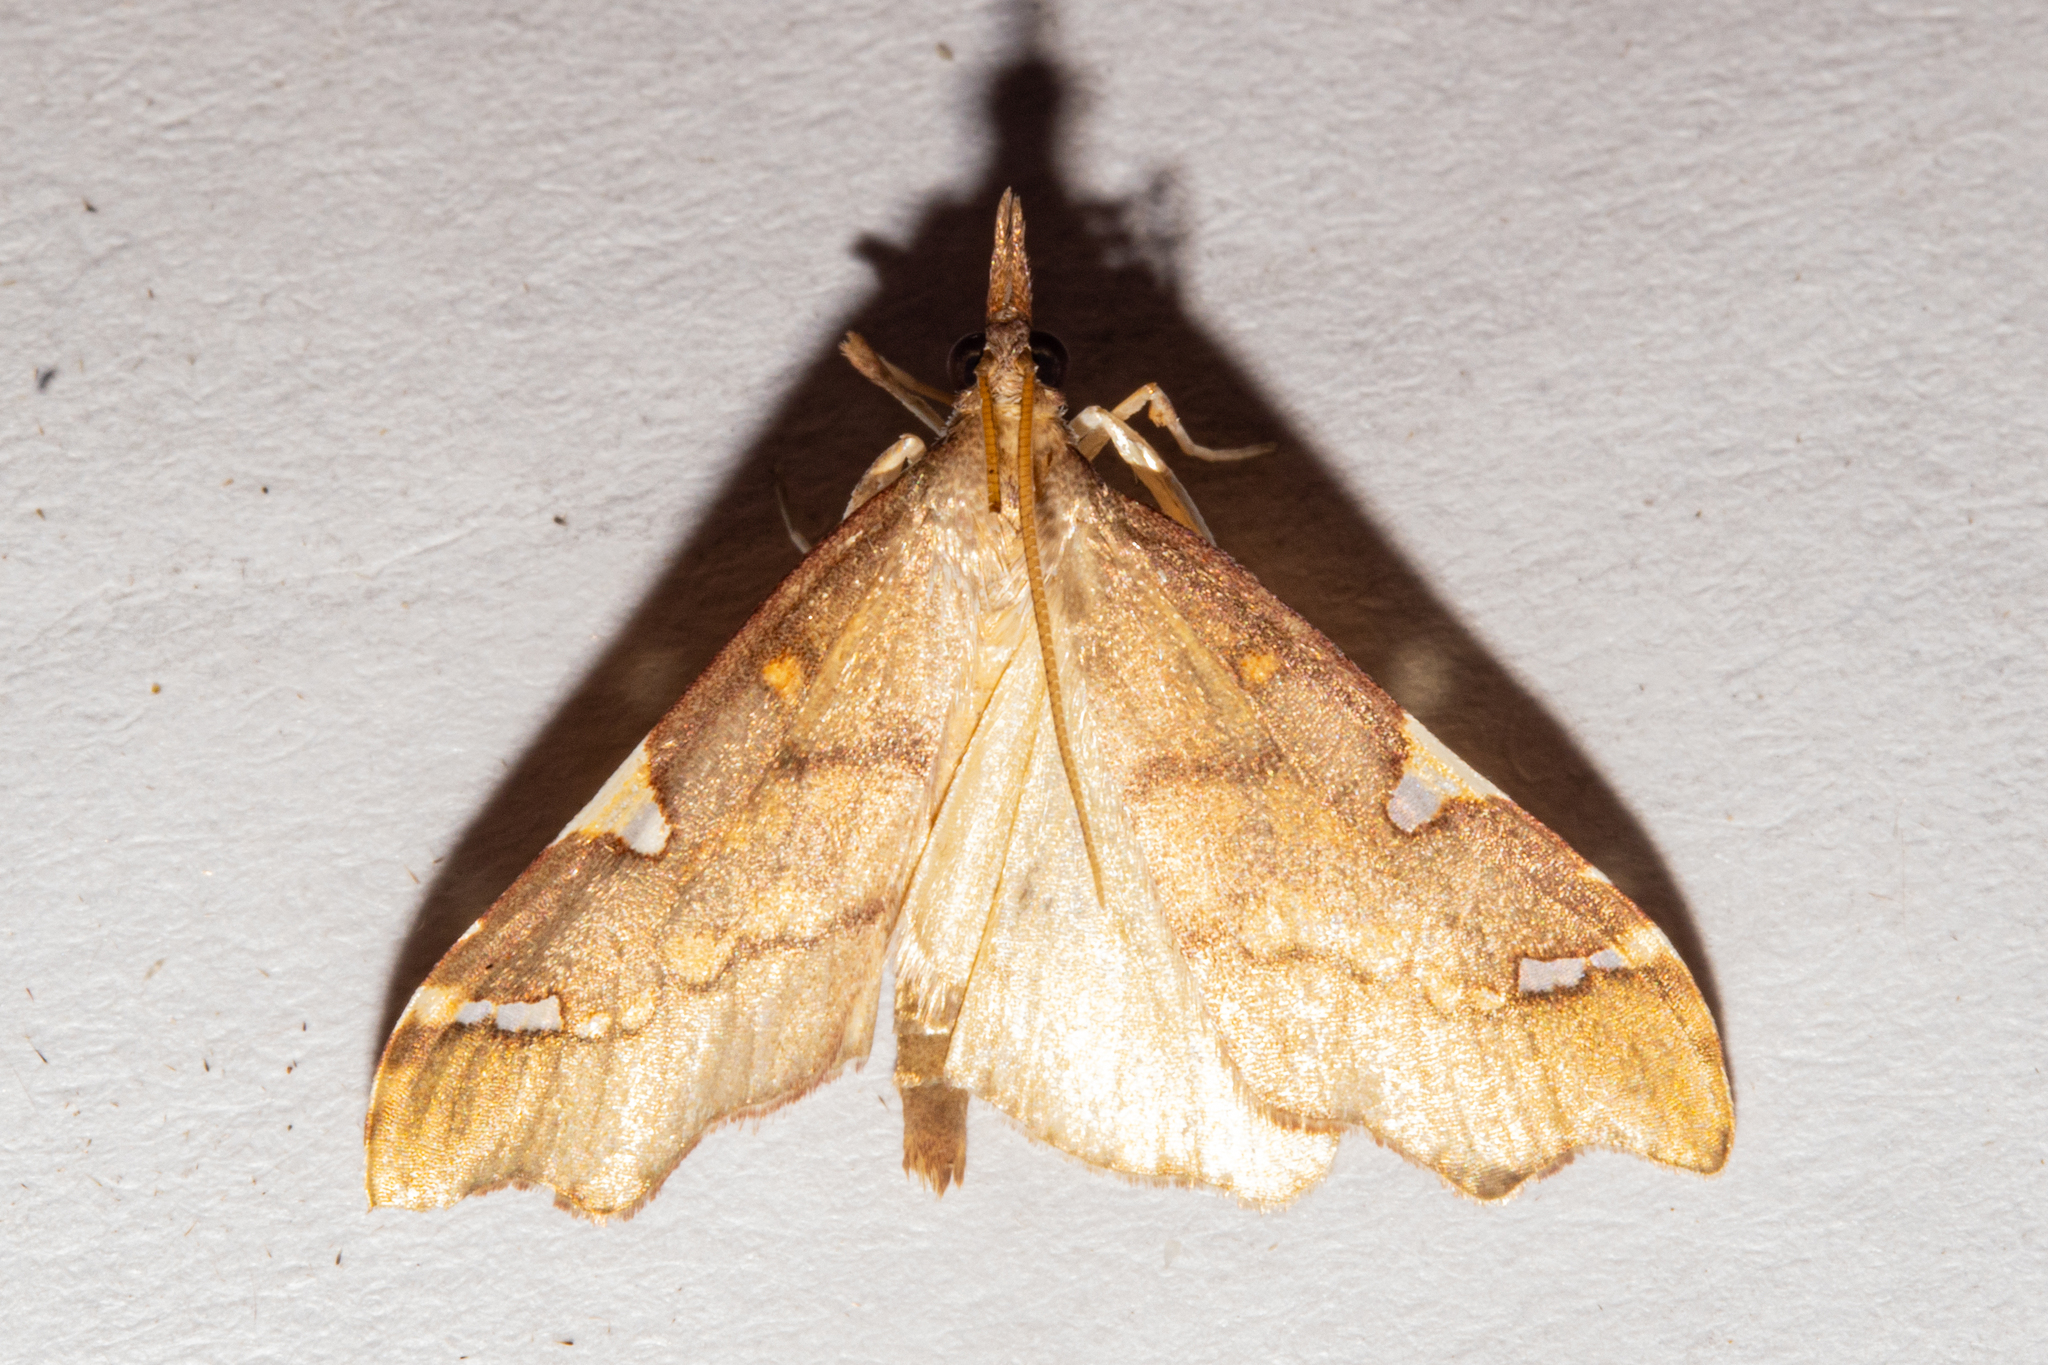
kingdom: Animalia
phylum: Arthropoda
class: Insecta
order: Lepidoptera
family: Crambidae
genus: Deana
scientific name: Deana hybreasalis
